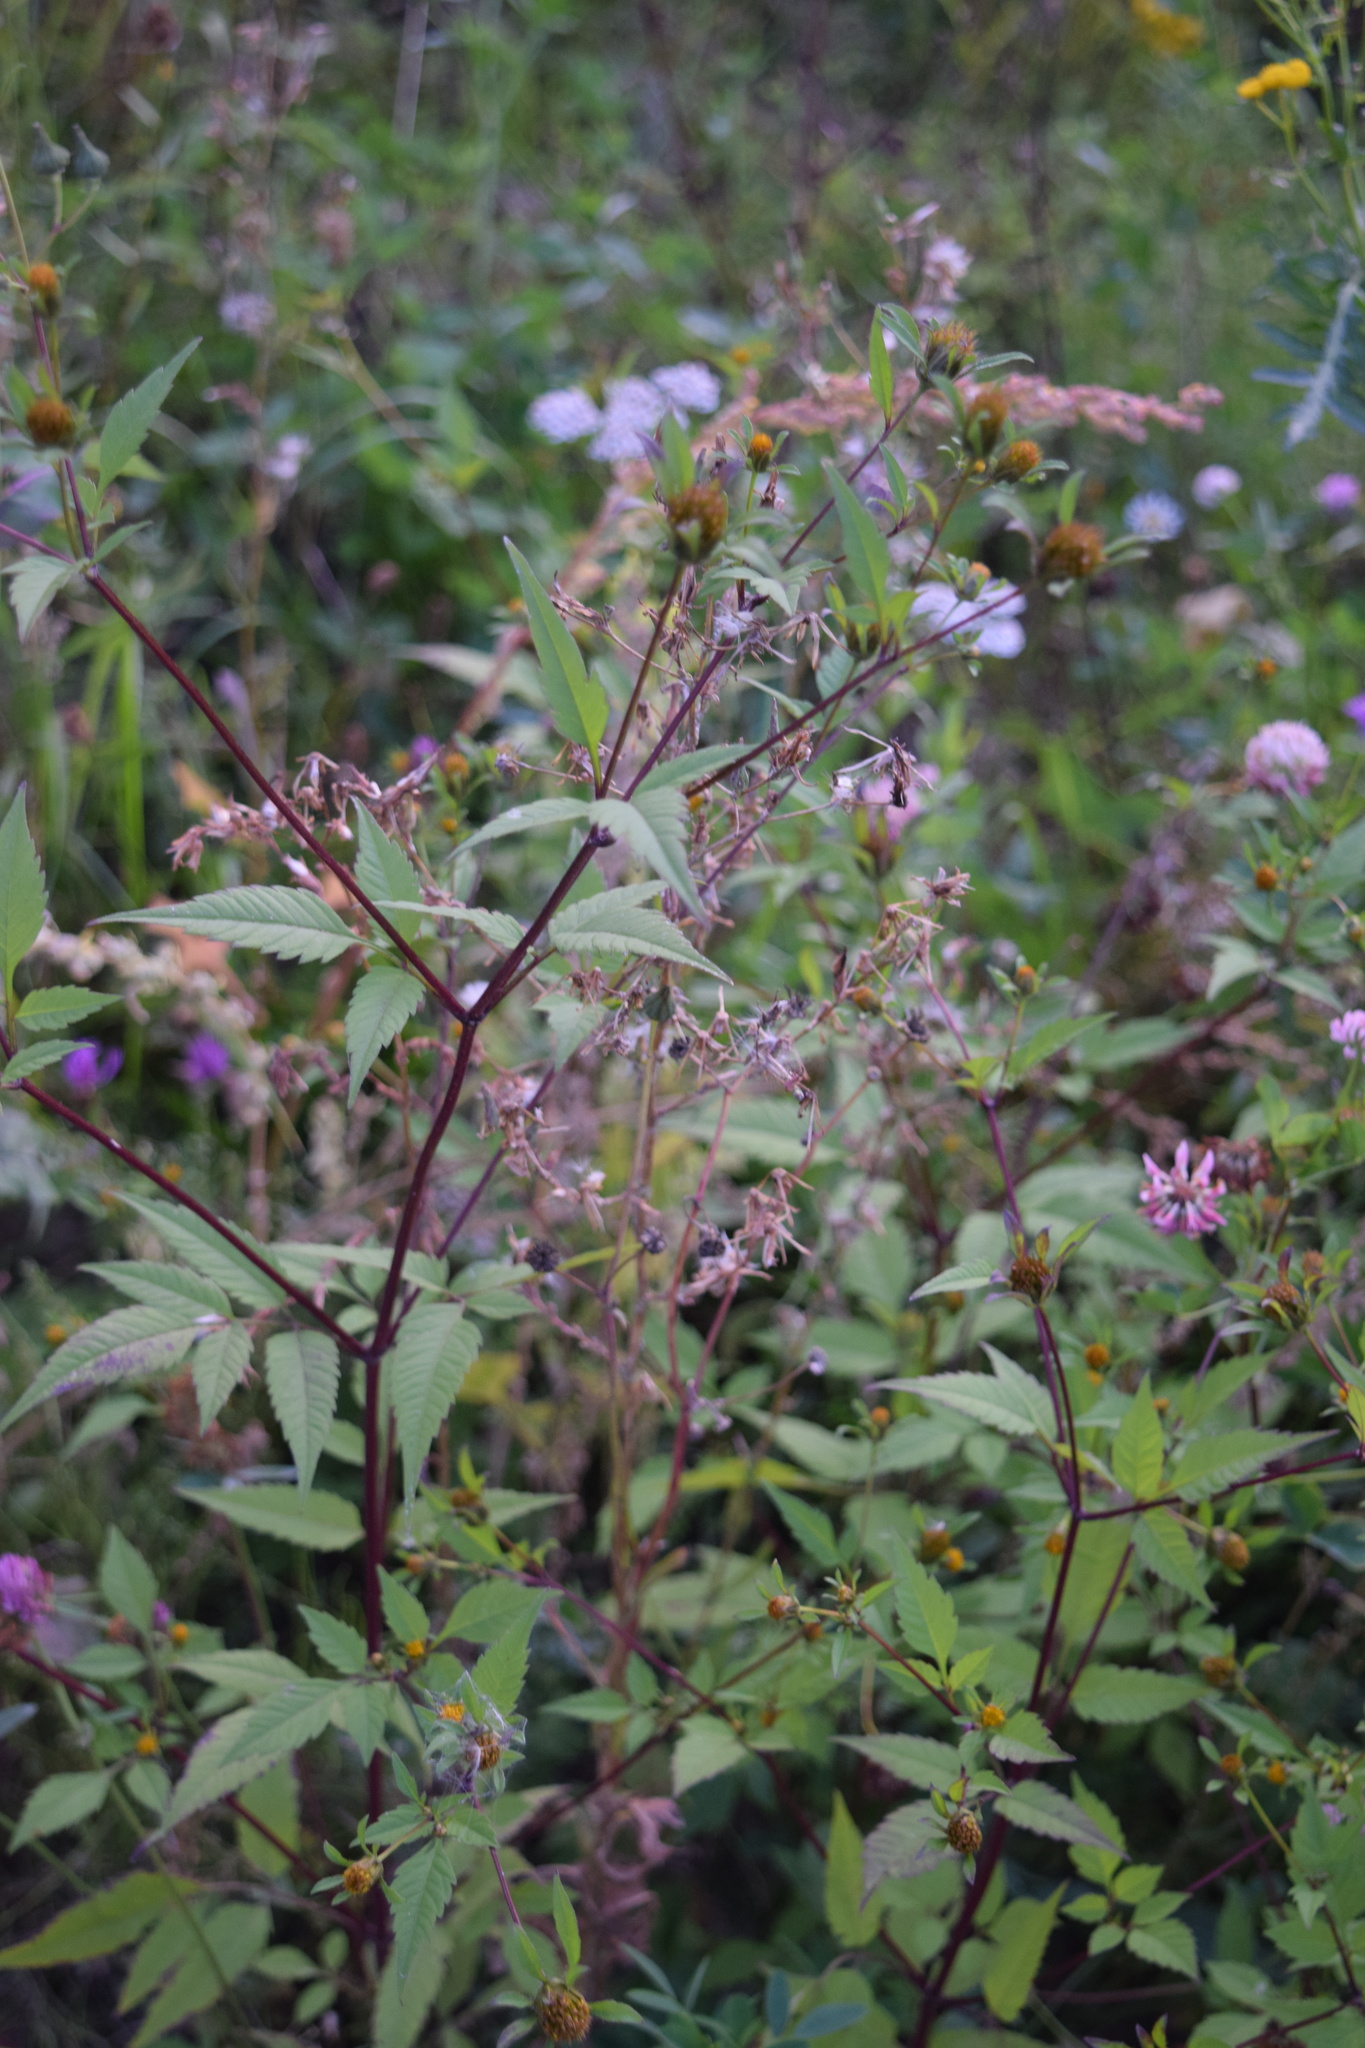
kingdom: Plantae
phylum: Tracheophyta
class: Magnoliopsida
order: Asterales
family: Asteraceae
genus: Bidens
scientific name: Bidens frondosa
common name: Beggarticks
